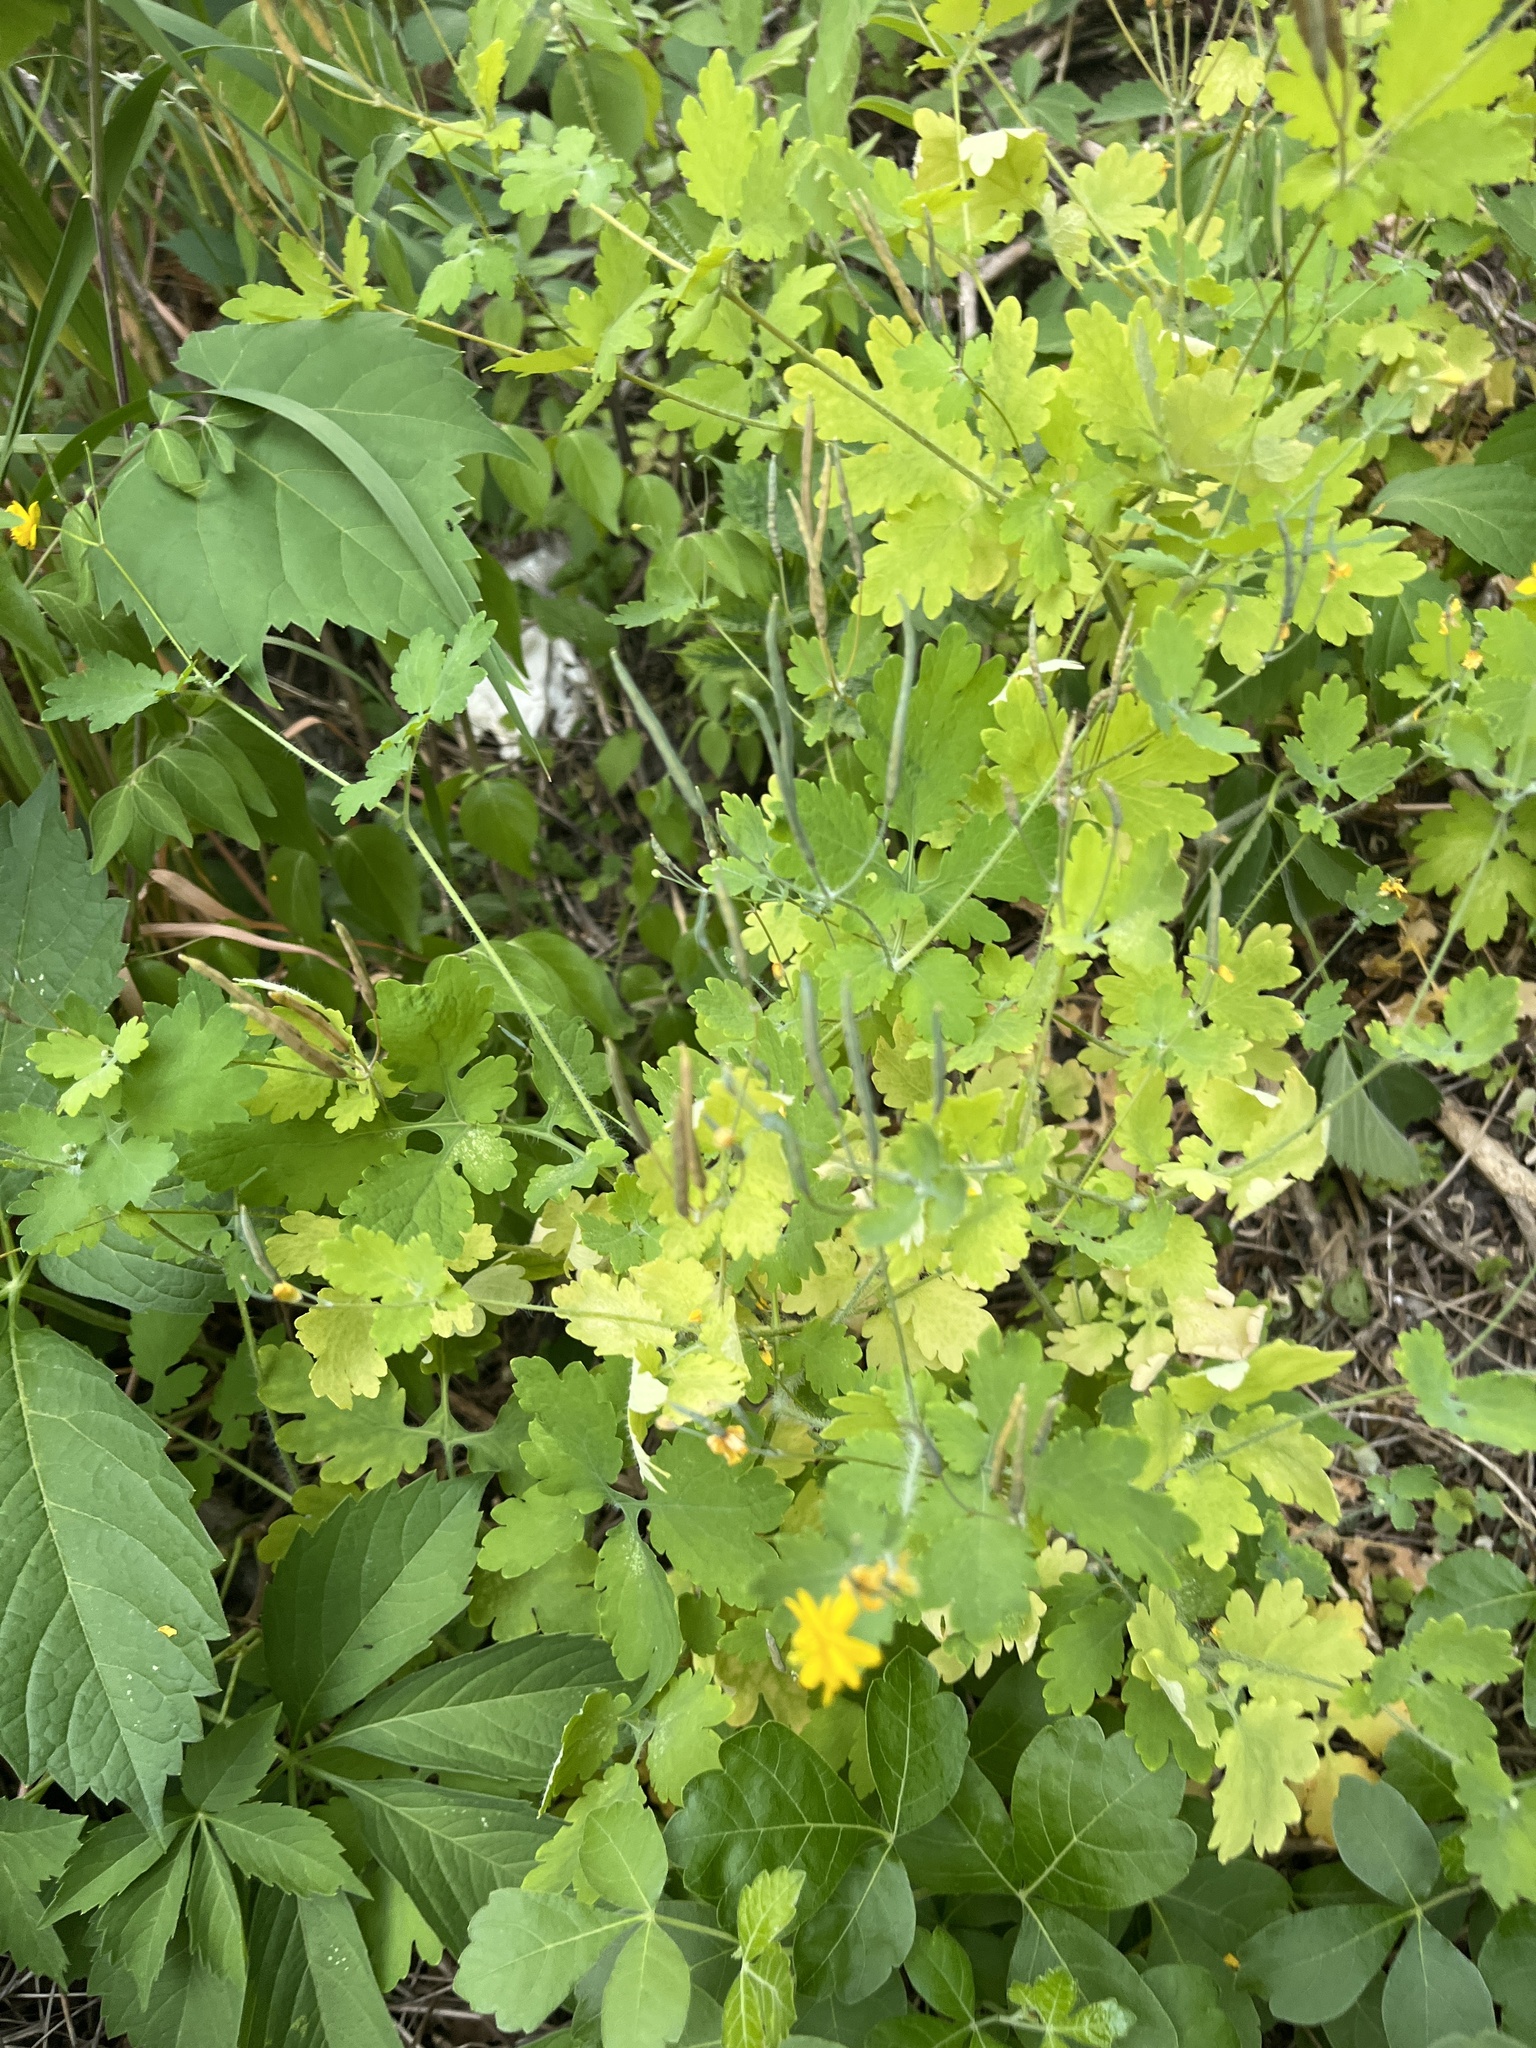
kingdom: Plantae
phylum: Tracheophyta
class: Magnoliopsida
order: Ranunculales
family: Papaveraceae
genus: Chelidonium
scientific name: Chelidonium majus
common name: Greater celandine
